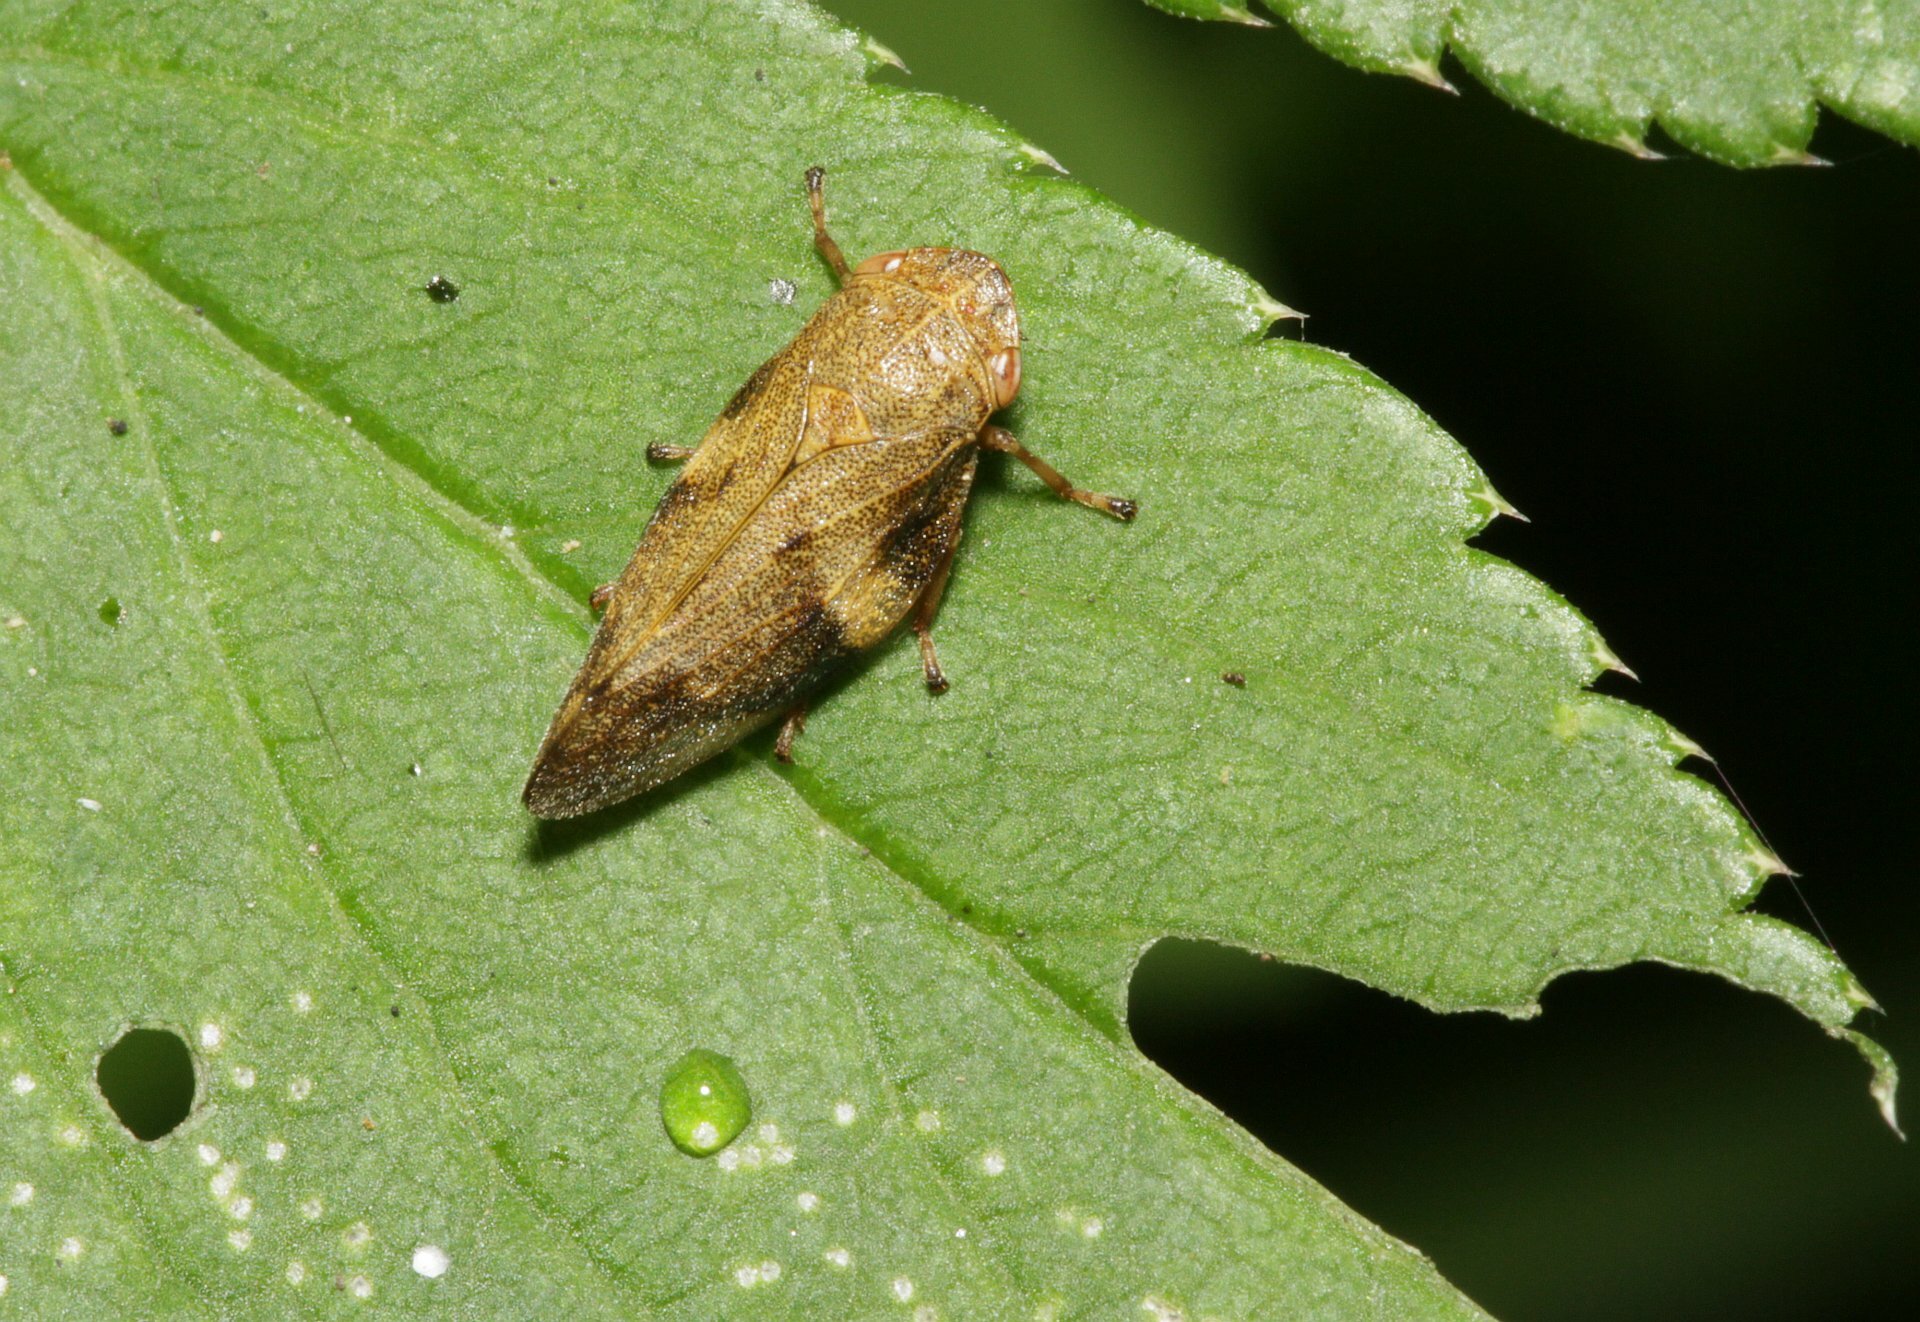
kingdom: Animalia
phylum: Arthropoda
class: Insecta
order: Hemiptera
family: Aphrophoridae
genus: Aphrophora
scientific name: Aphrophora alni
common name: European alder spittlebug
